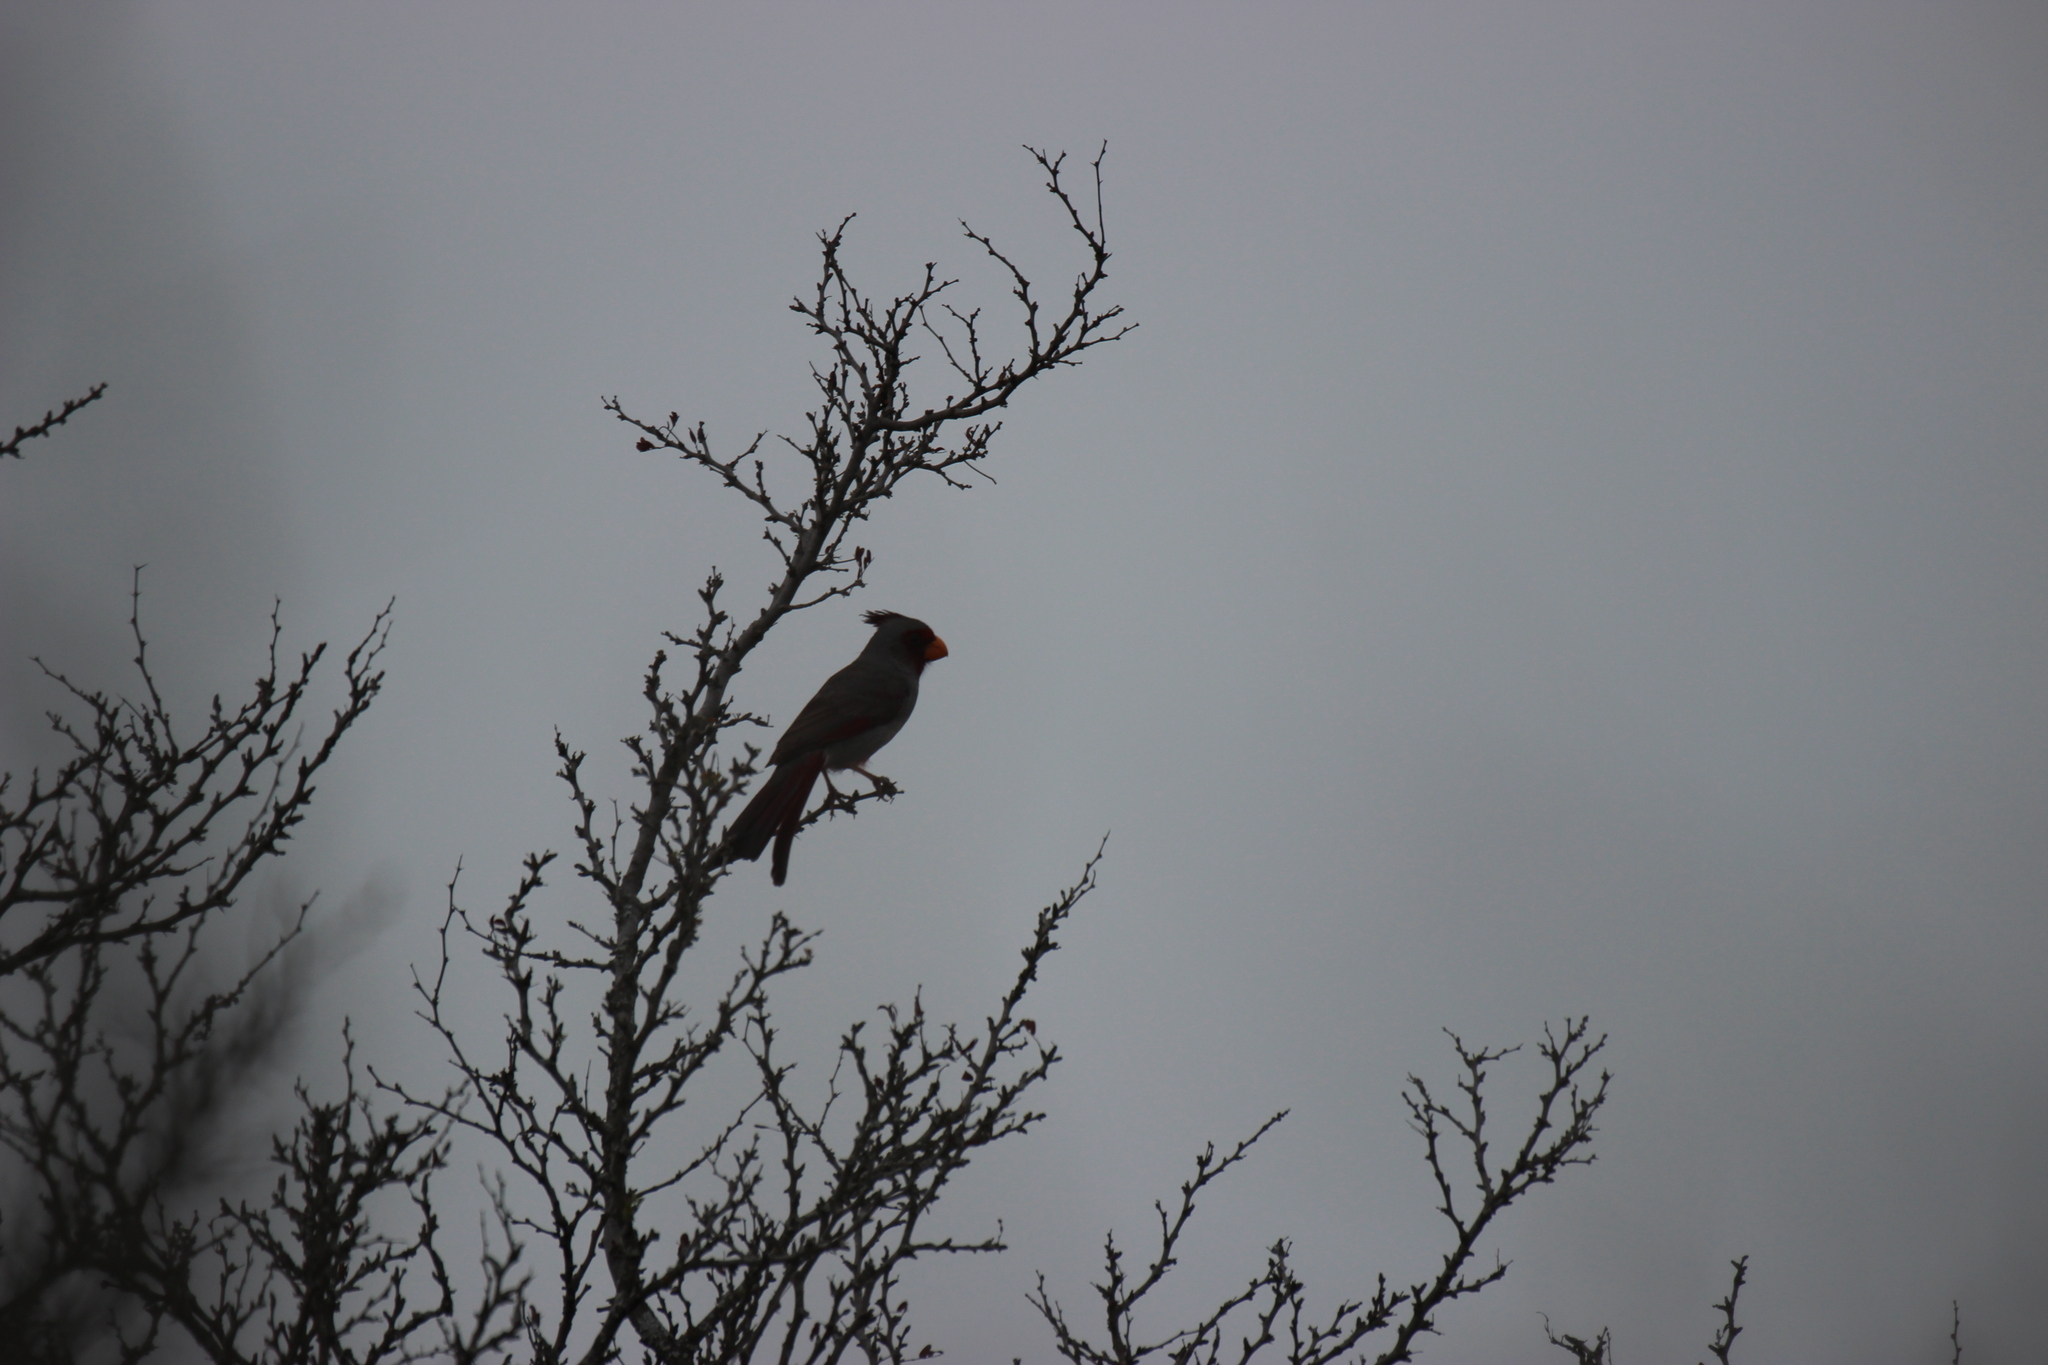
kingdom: Animalia
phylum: Chordata
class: Aves
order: Passeriformes
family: Cardinalidae
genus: Cardinalis
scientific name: Cardinalis sinuatus
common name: Pyrrhuloxia
